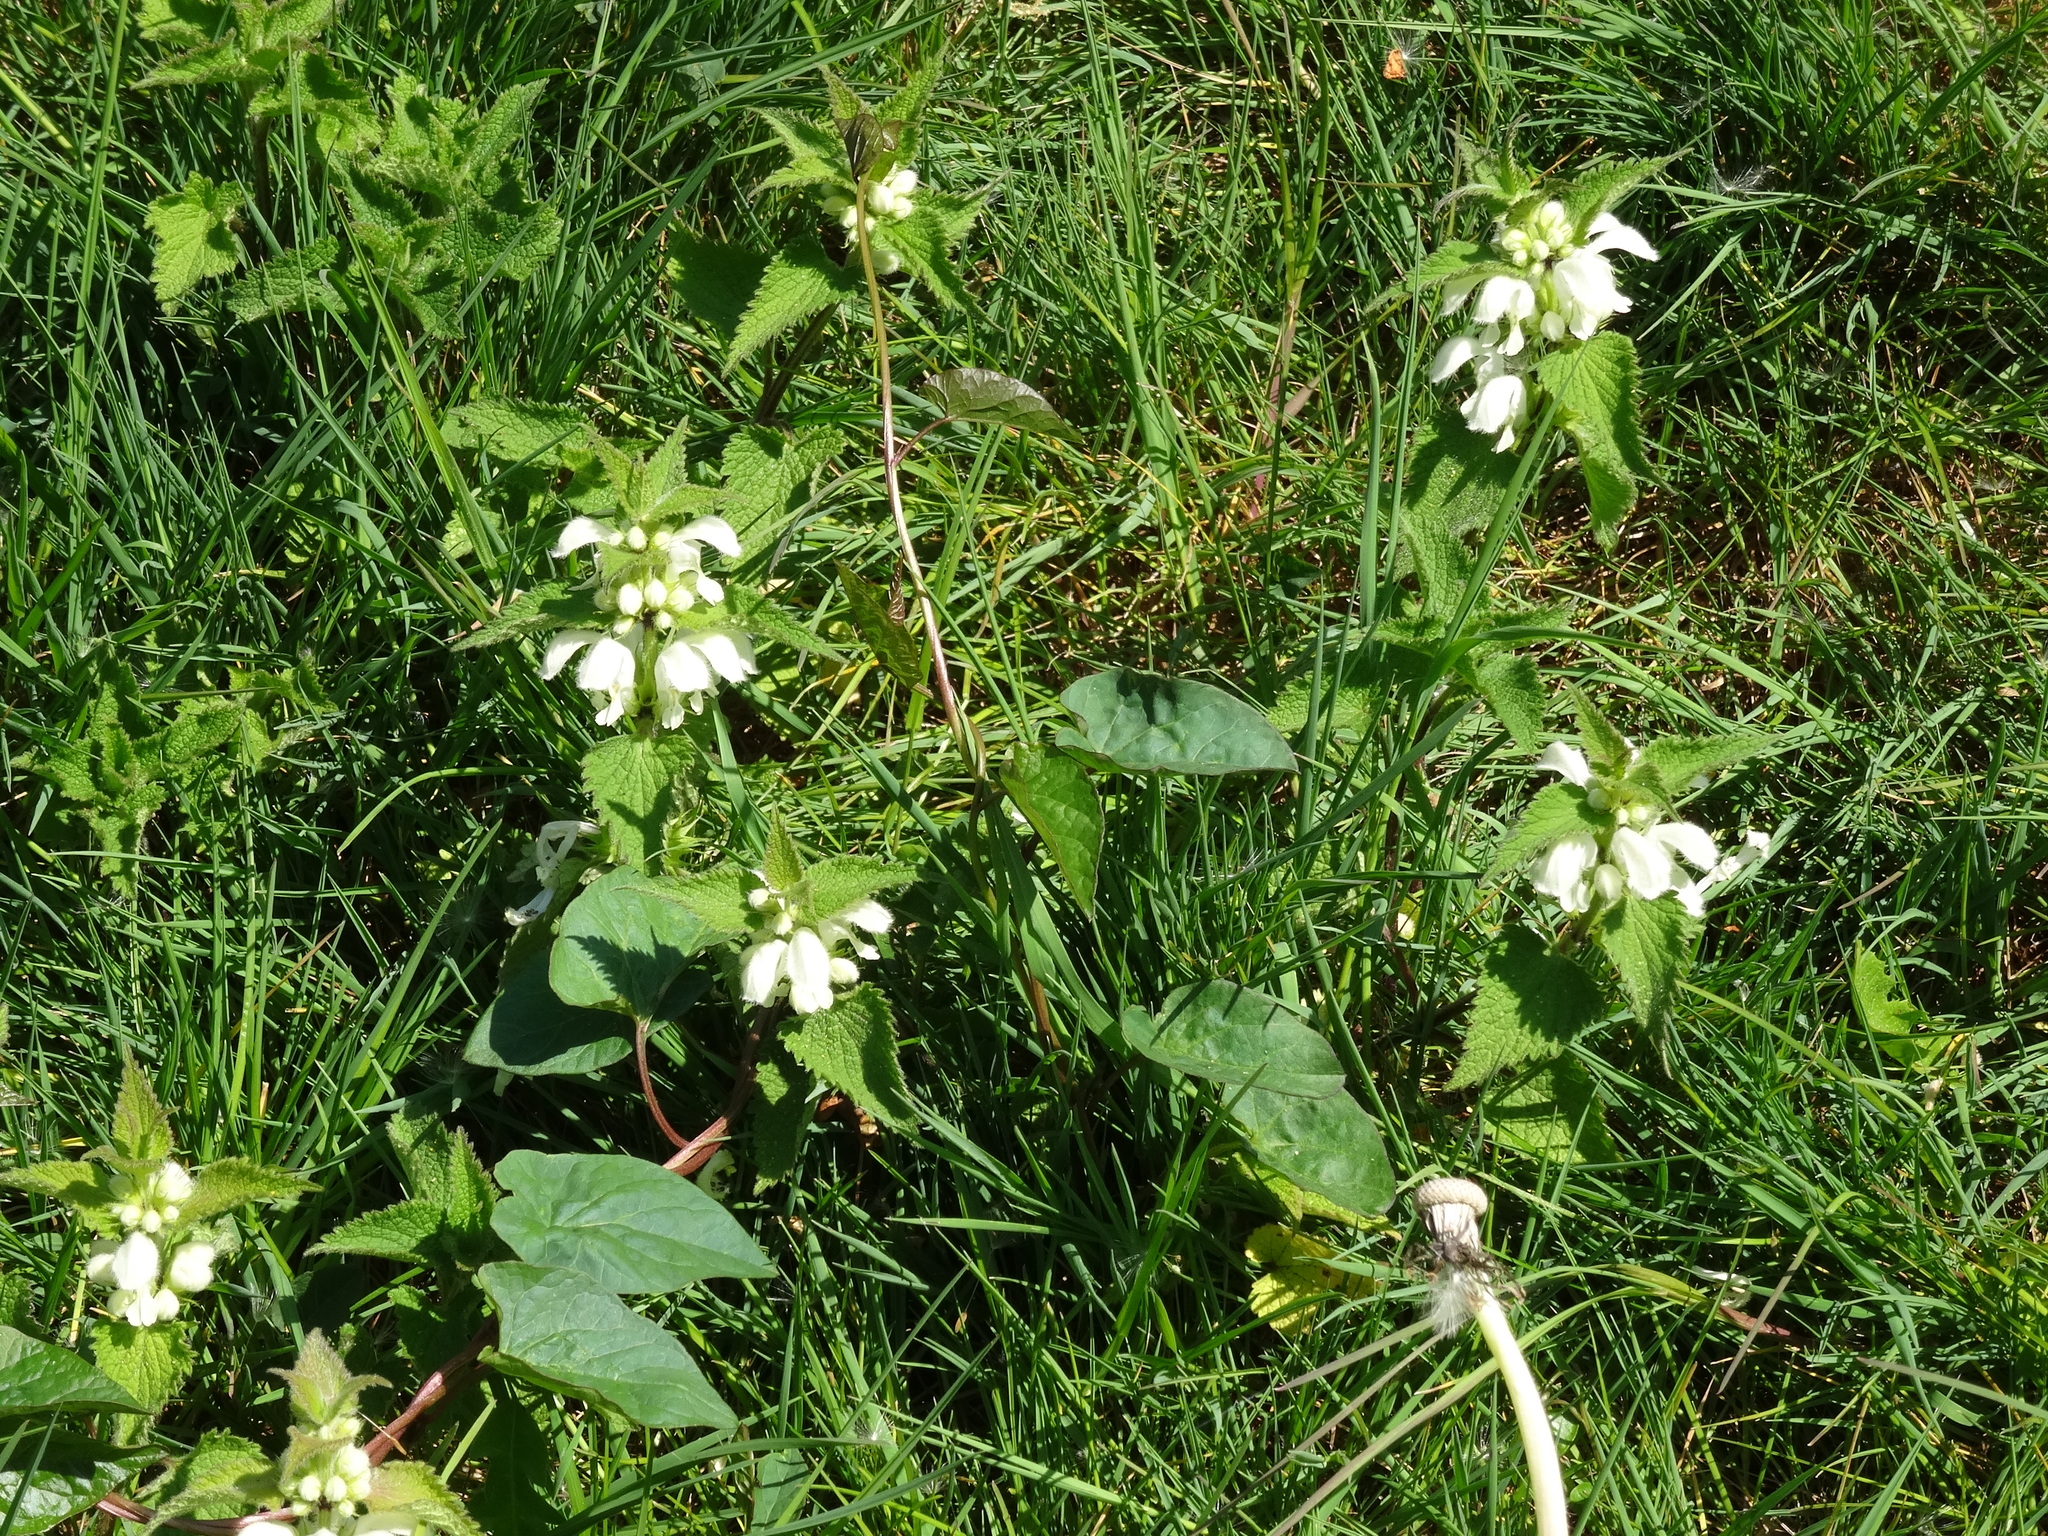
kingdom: Plantae
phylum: Tracheophyta
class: Magnoliopsida
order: Lamiales
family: Lamiaceae
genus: Lamium
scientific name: Lamium album
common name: White dead-nettle
